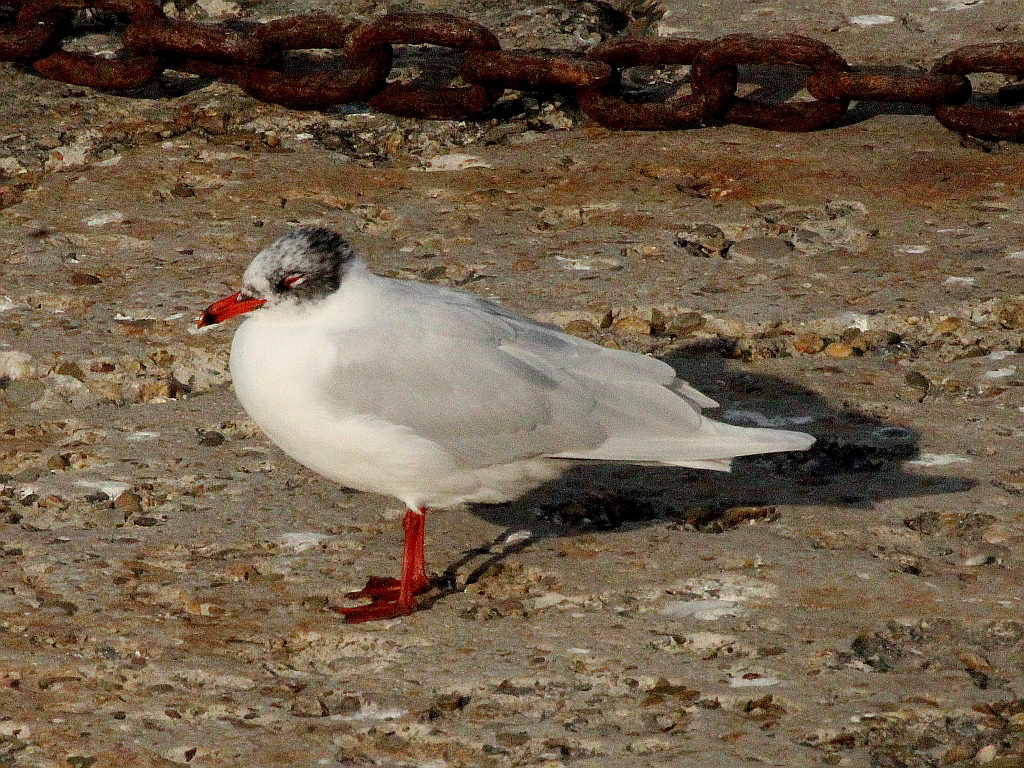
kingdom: Animalia
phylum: Chordata
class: Aves
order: Charadriiformes
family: Laridae
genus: Ichthyaetus
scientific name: Ichthyaetus melanocephalus
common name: Mediterranean gull
